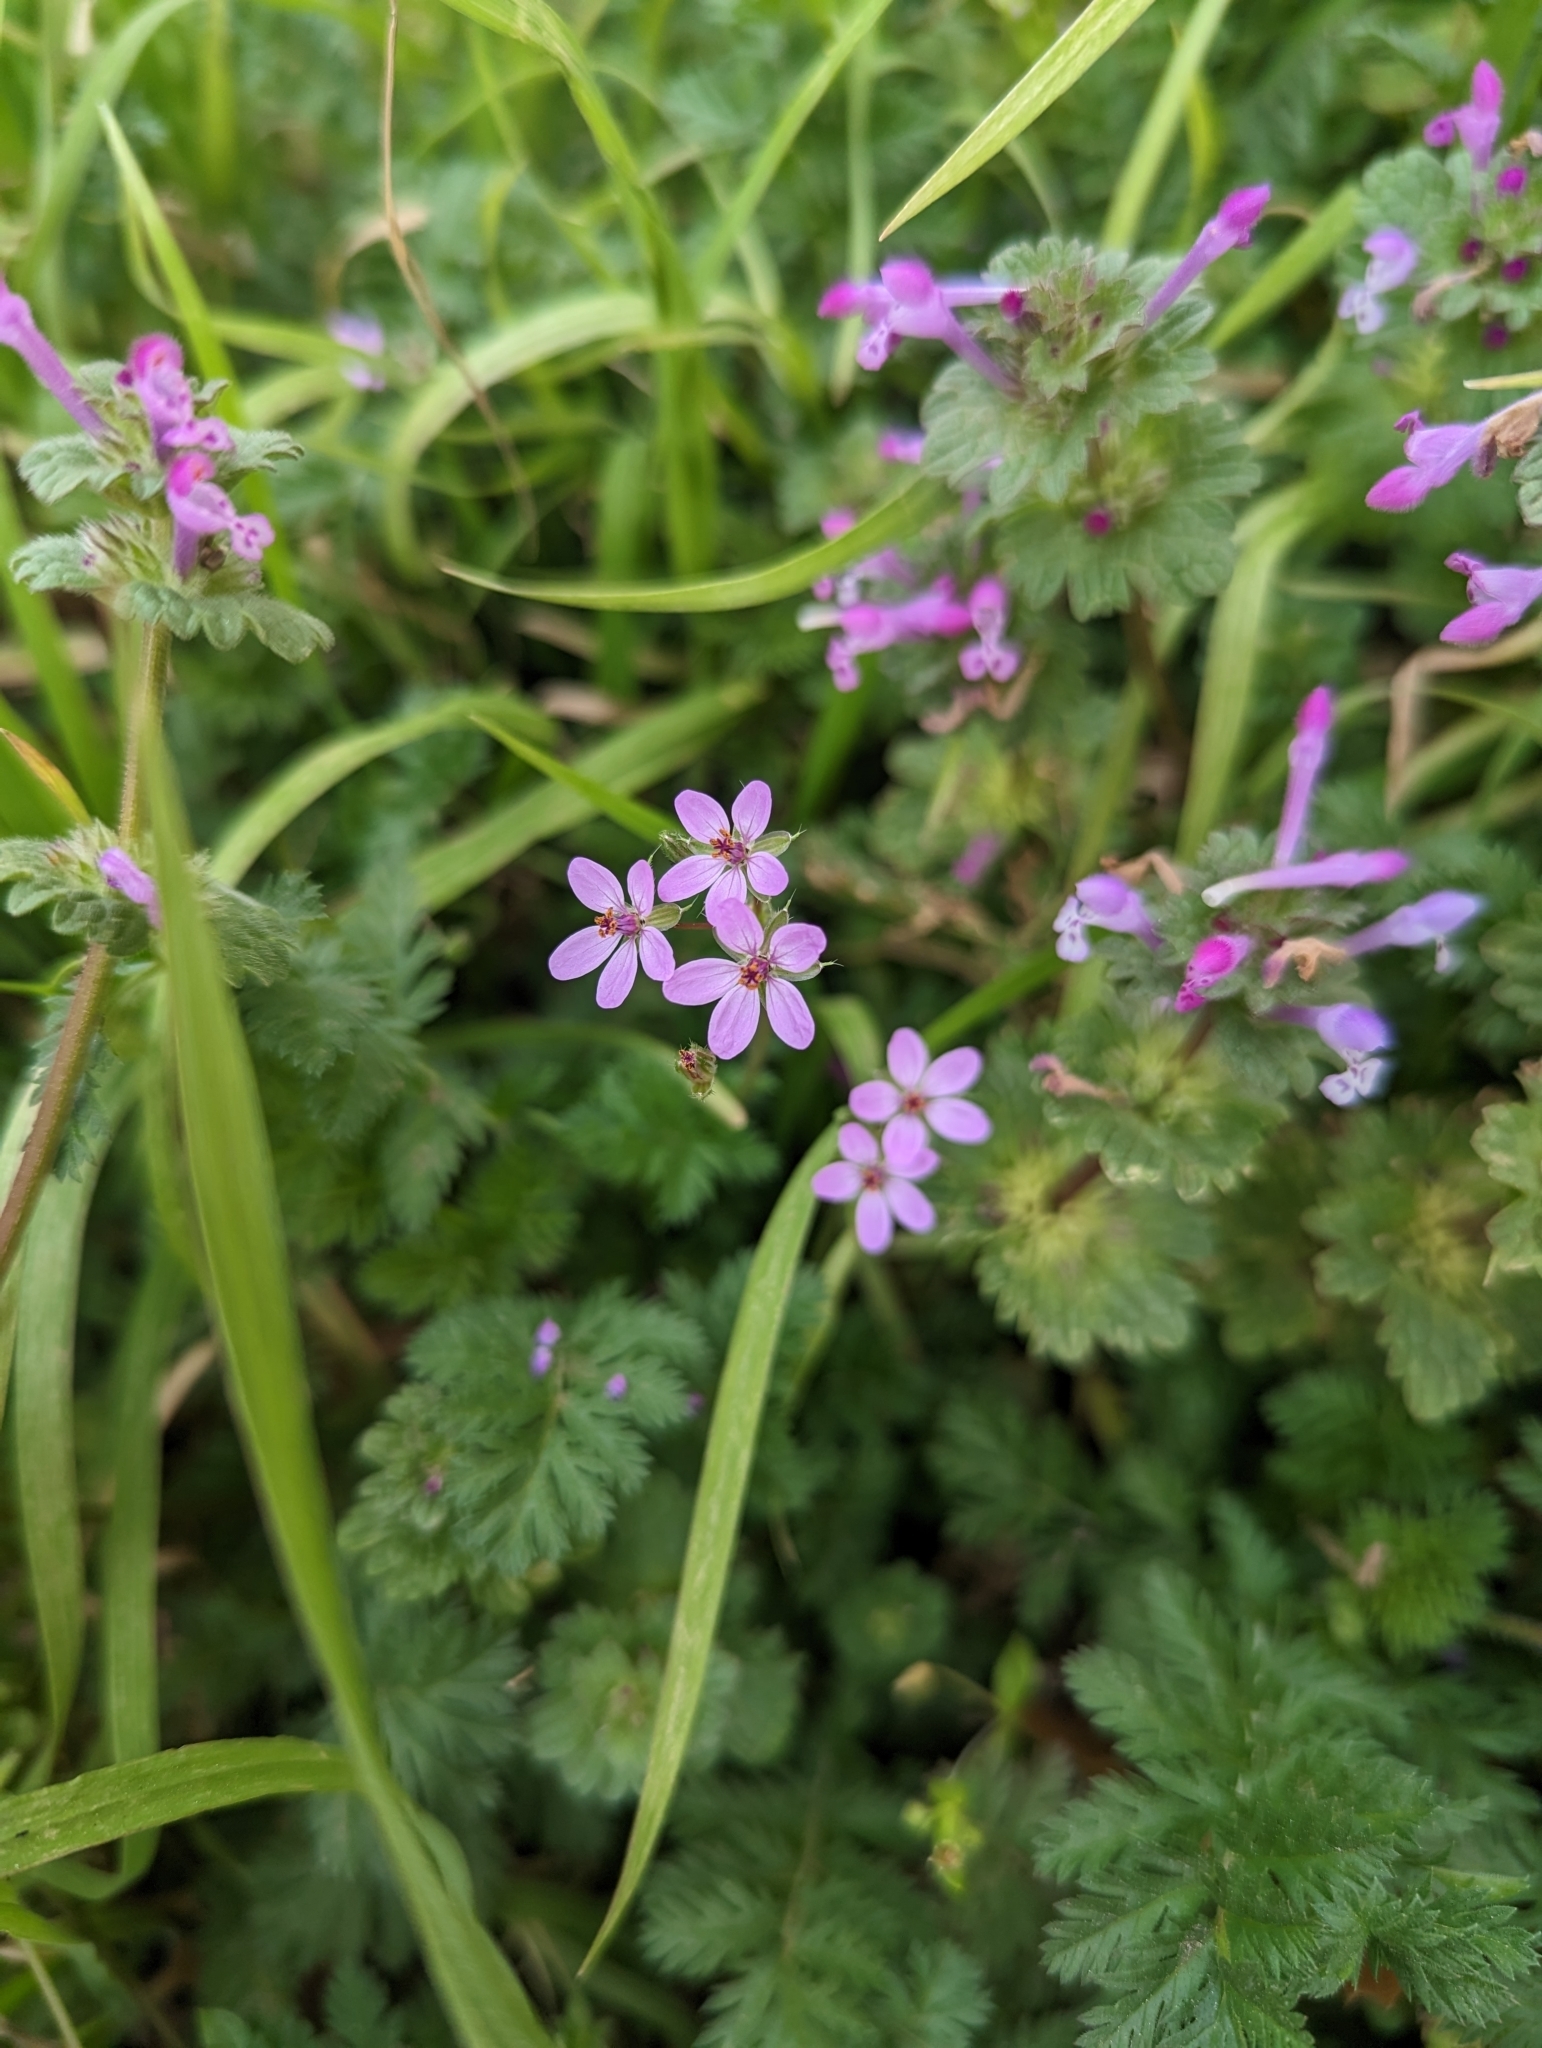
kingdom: Plantae
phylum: Tracheophyta
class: Magnoliopsida
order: Geraniales
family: Geraniaceae
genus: Erodium
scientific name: Erodium cicutarium
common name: Common stork's-bill
